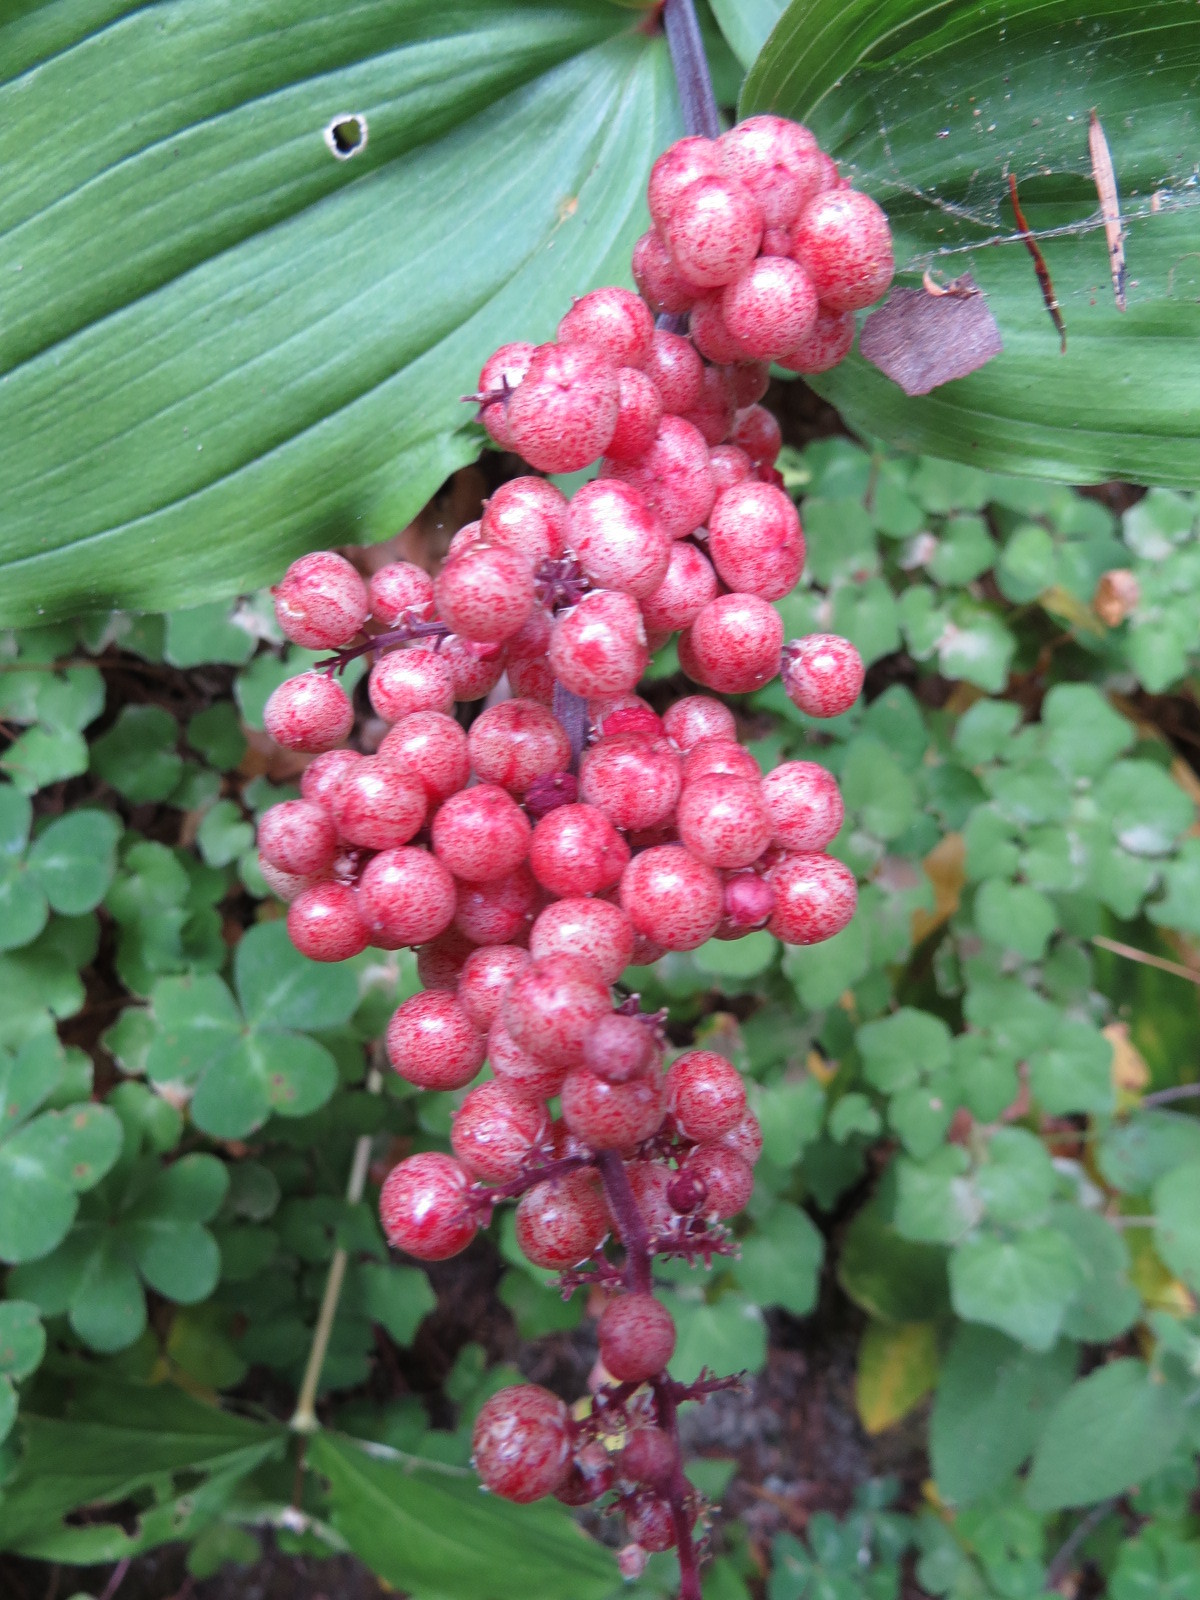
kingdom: Plantae
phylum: Tracheophyta
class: Liliopsida
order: Asparagales
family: Asparagaceae
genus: Maianthemum
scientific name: Maianthemum racemosum
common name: False spikenard
